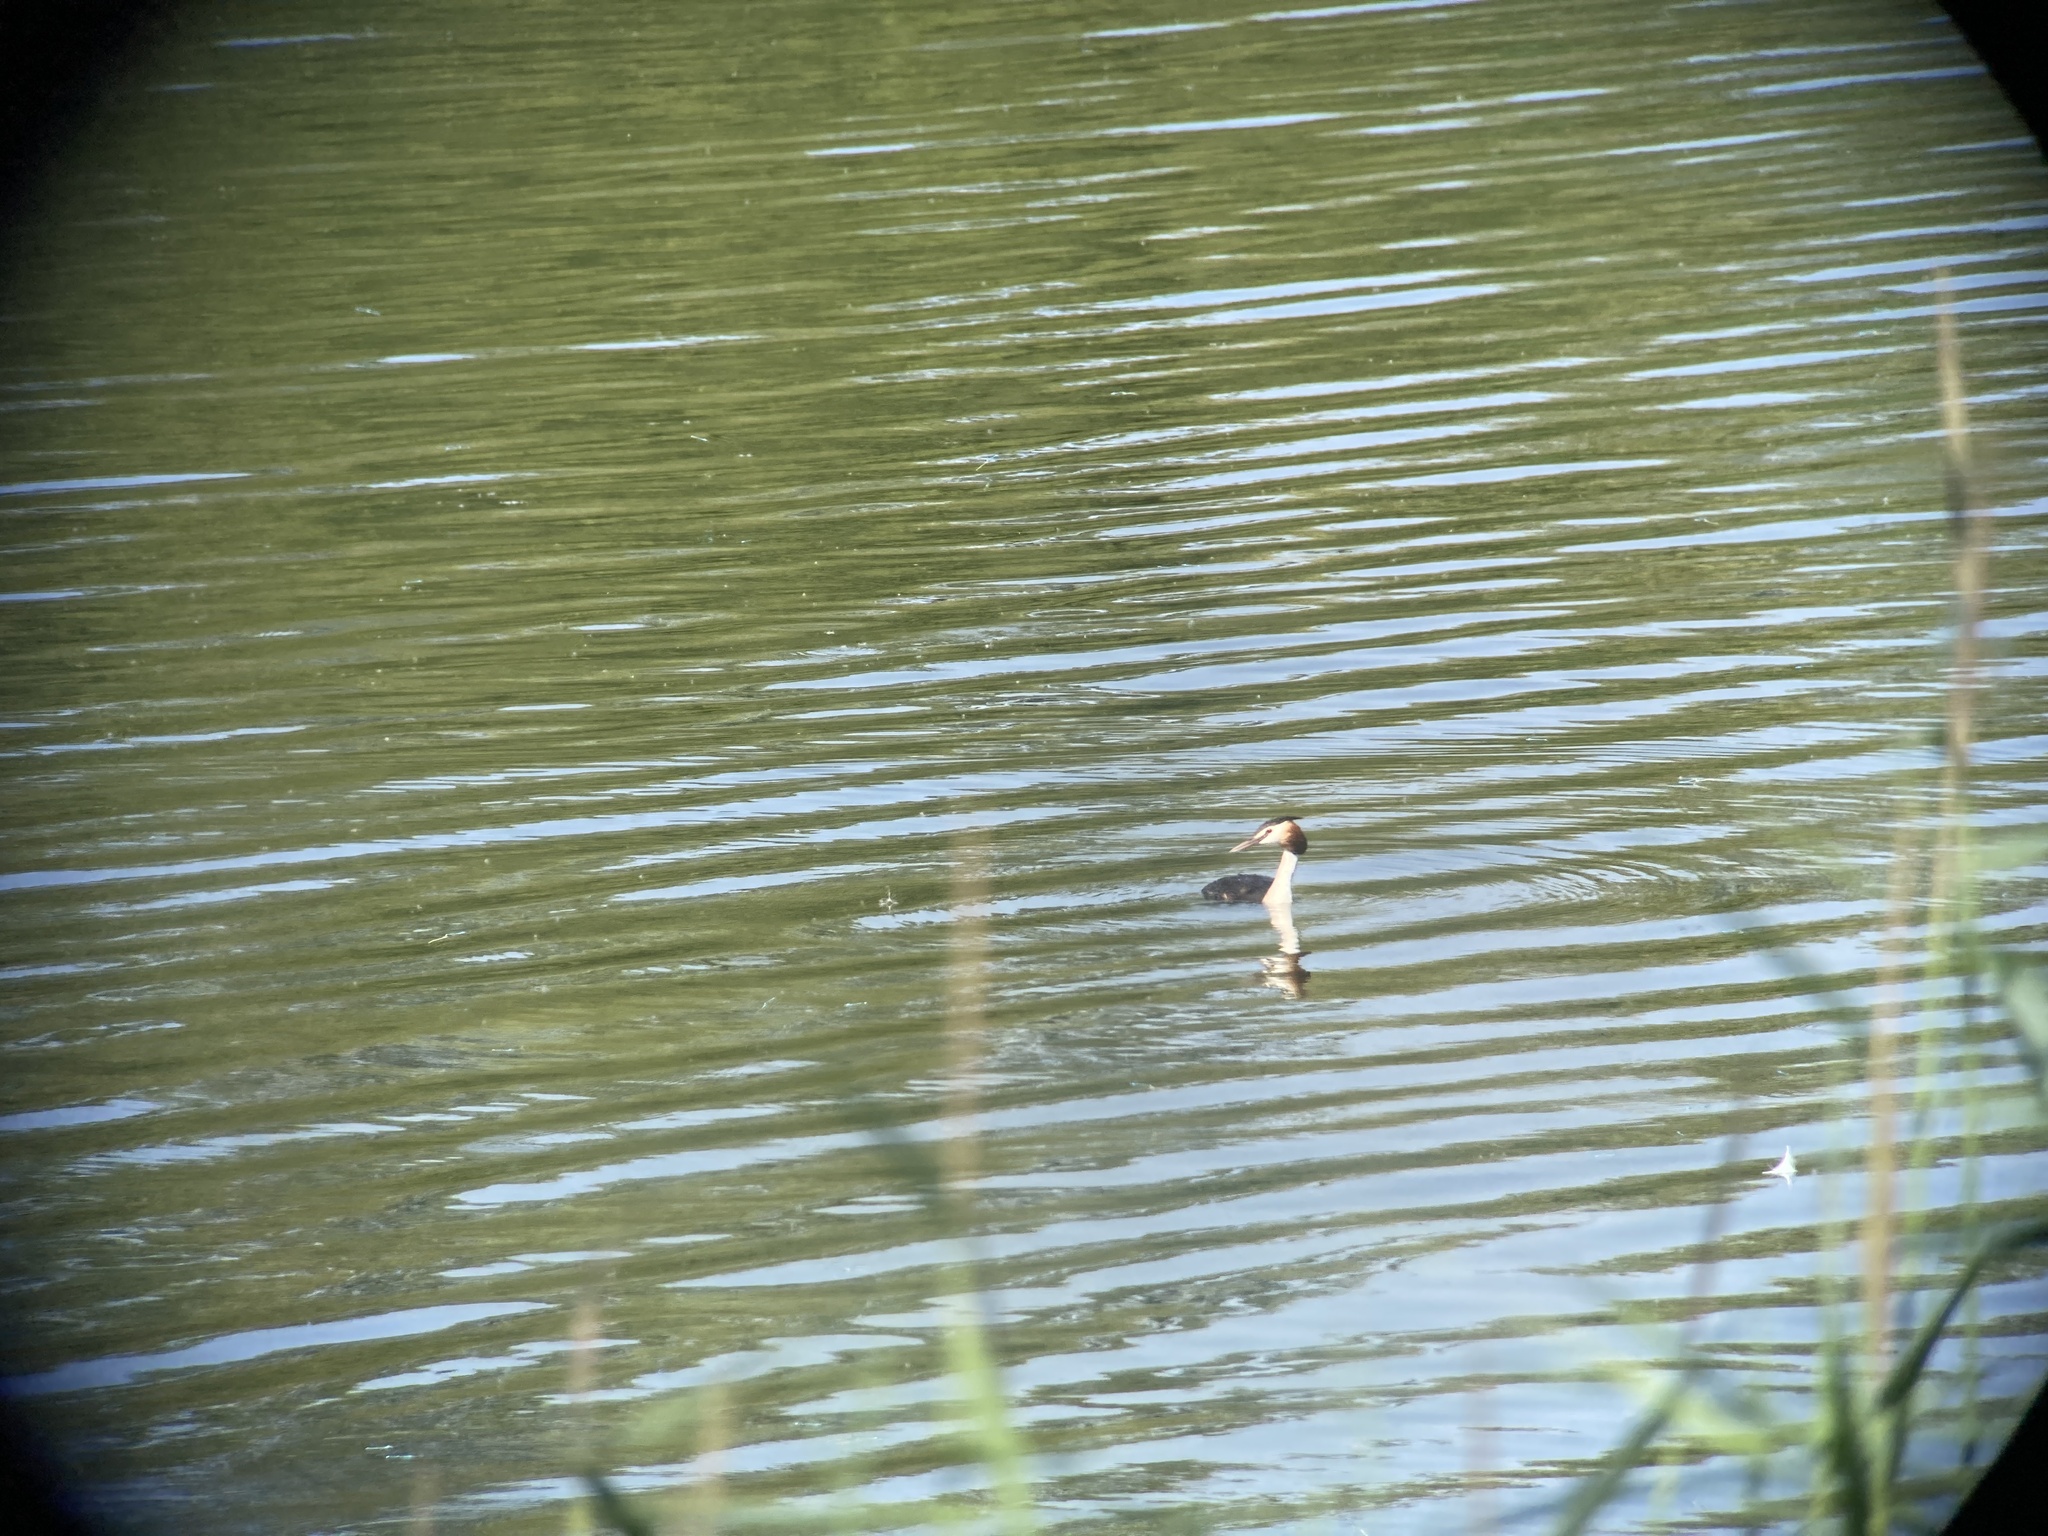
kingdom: Animalia
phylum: Chordata
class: Aves
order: Podicipediformes
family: Podicipedidae
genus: Podiceps
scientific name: Podiceps cristatus
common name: Great crested grebe
